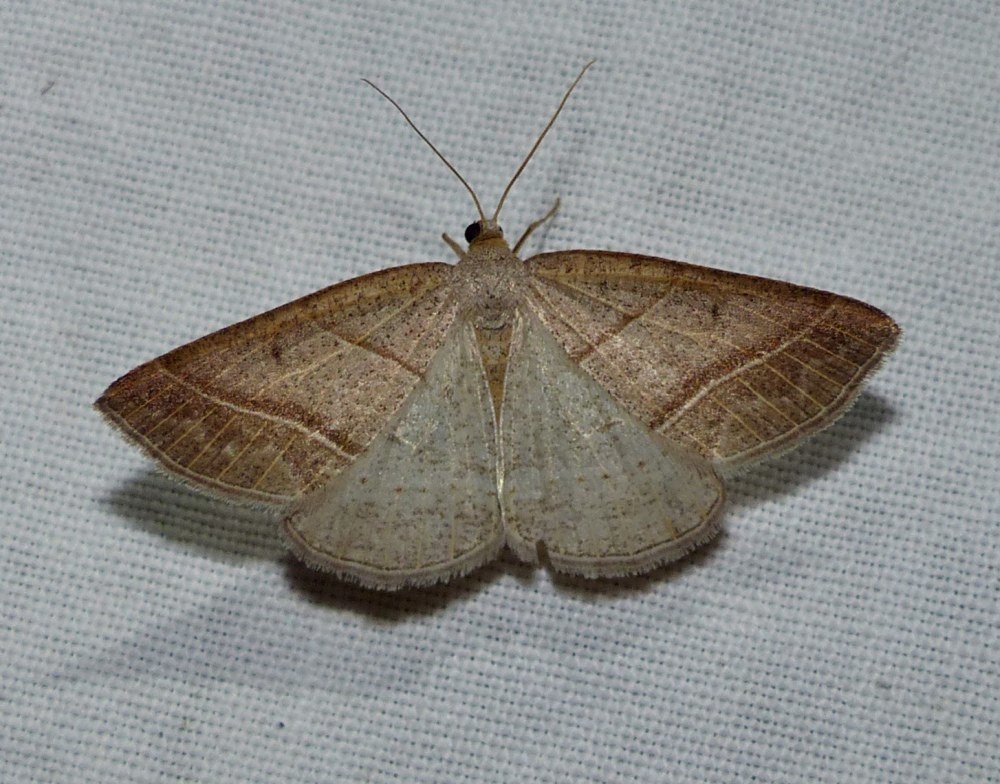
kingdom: Animalia
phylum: Arthropoda
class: Insecta
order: Lepidoptera
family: Pterophoridae
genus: Pterophorus
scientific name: Pterophorus Petrophora subaequaria
